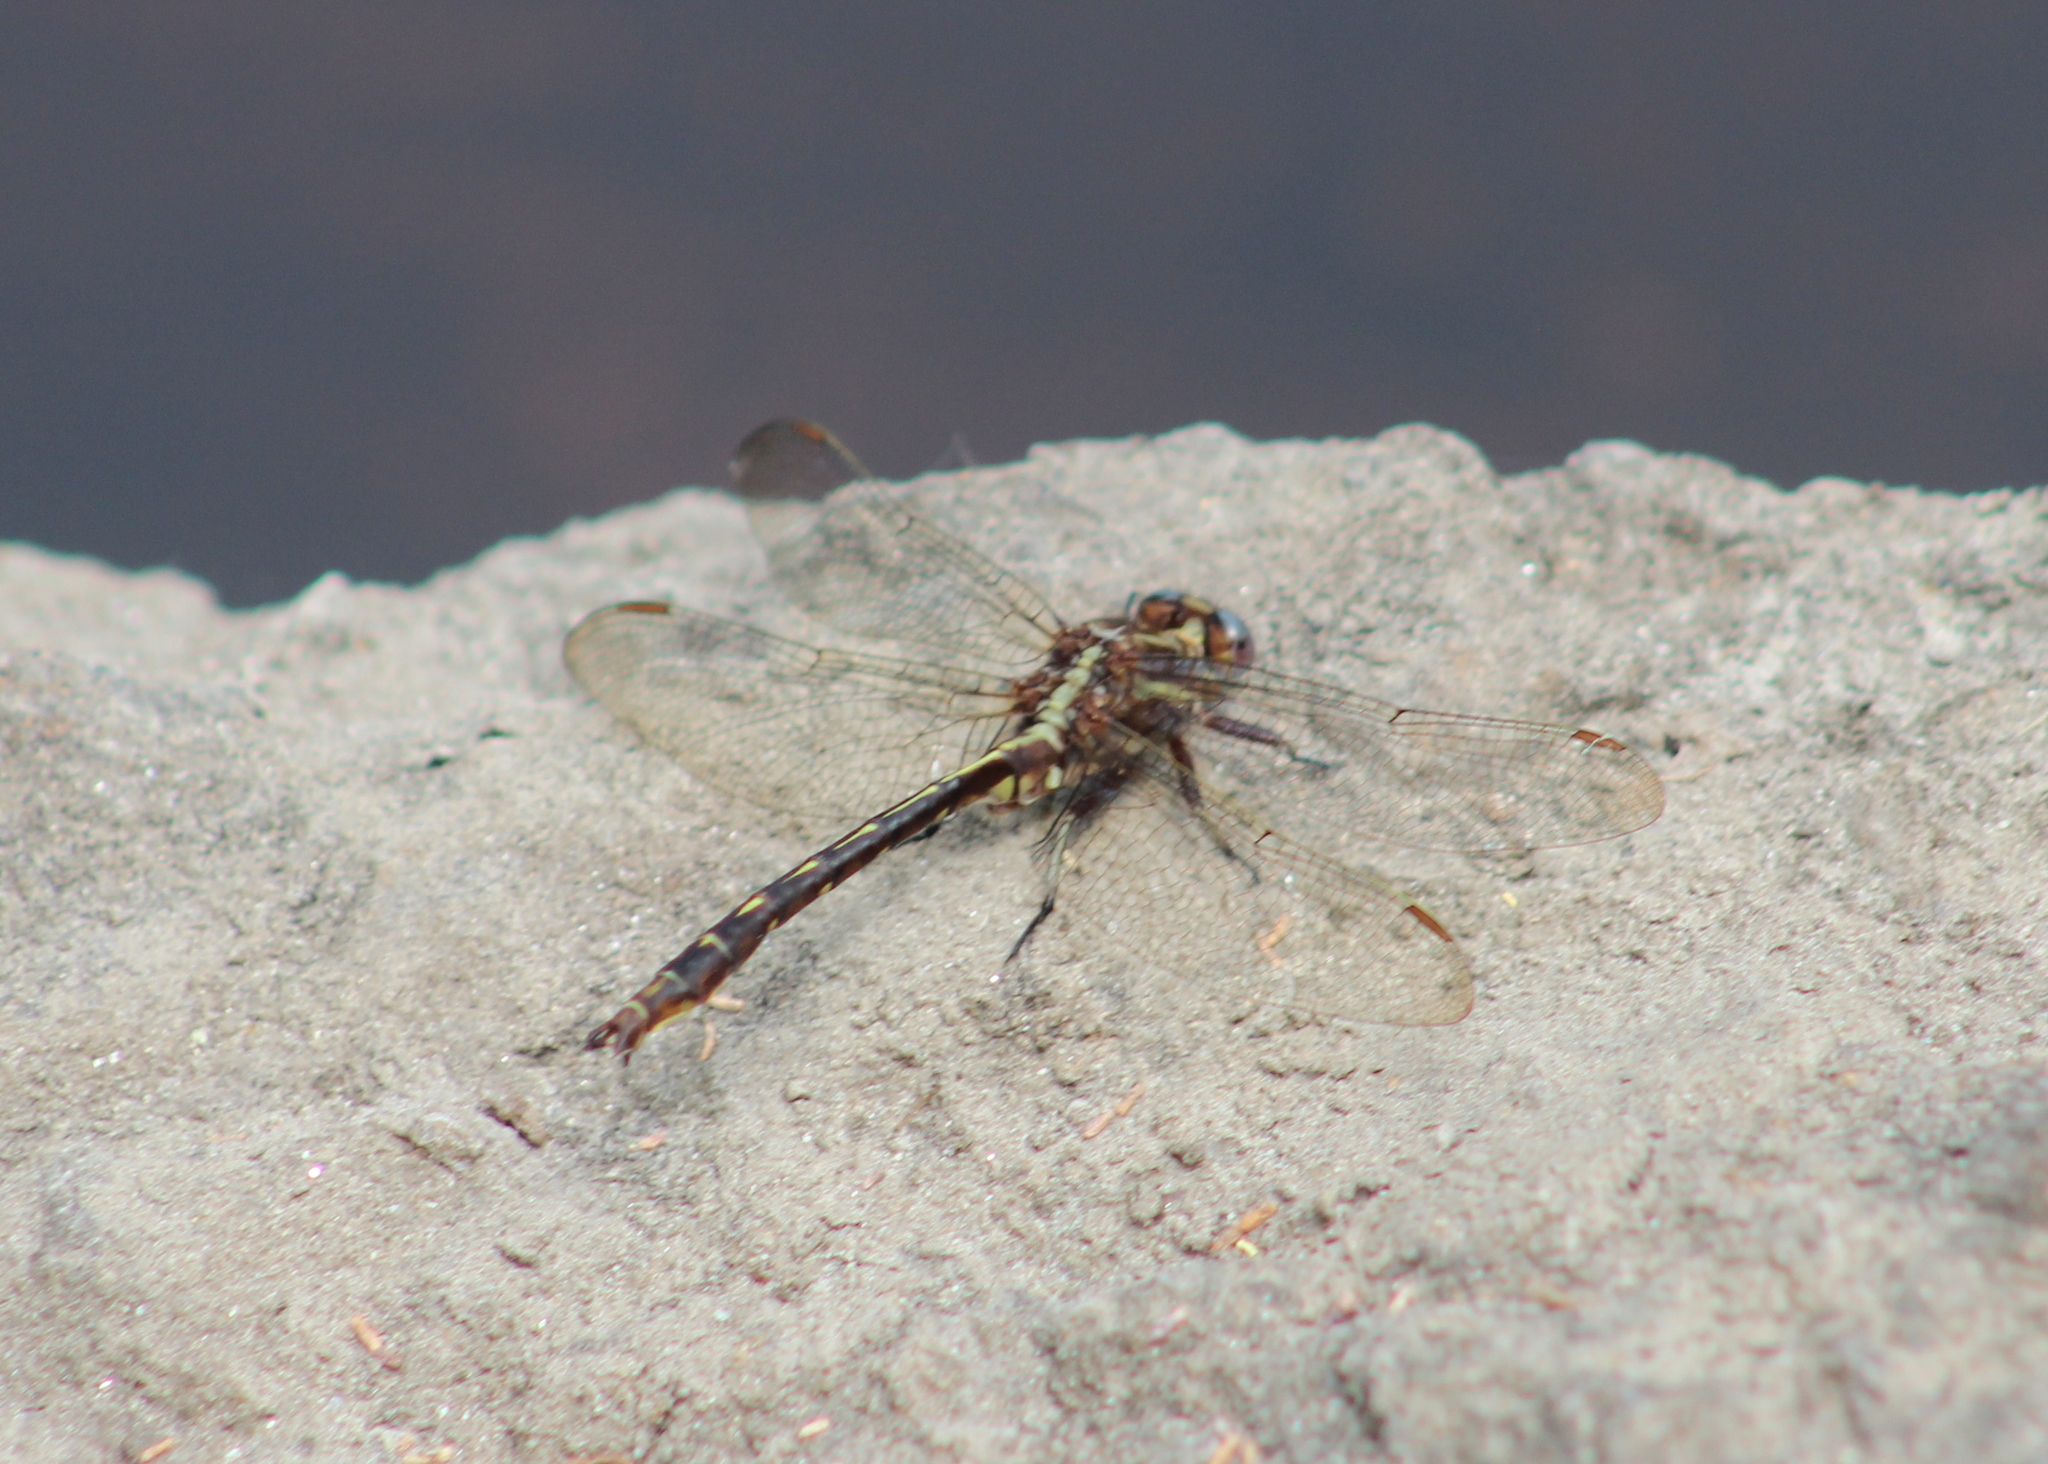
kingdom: Animalia
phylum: Arthropoda
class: Insecta
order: Odonata
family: Gomphidae
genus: Phanogomphus
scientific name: Phanogomphus lividus
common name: Ashy clubtail
